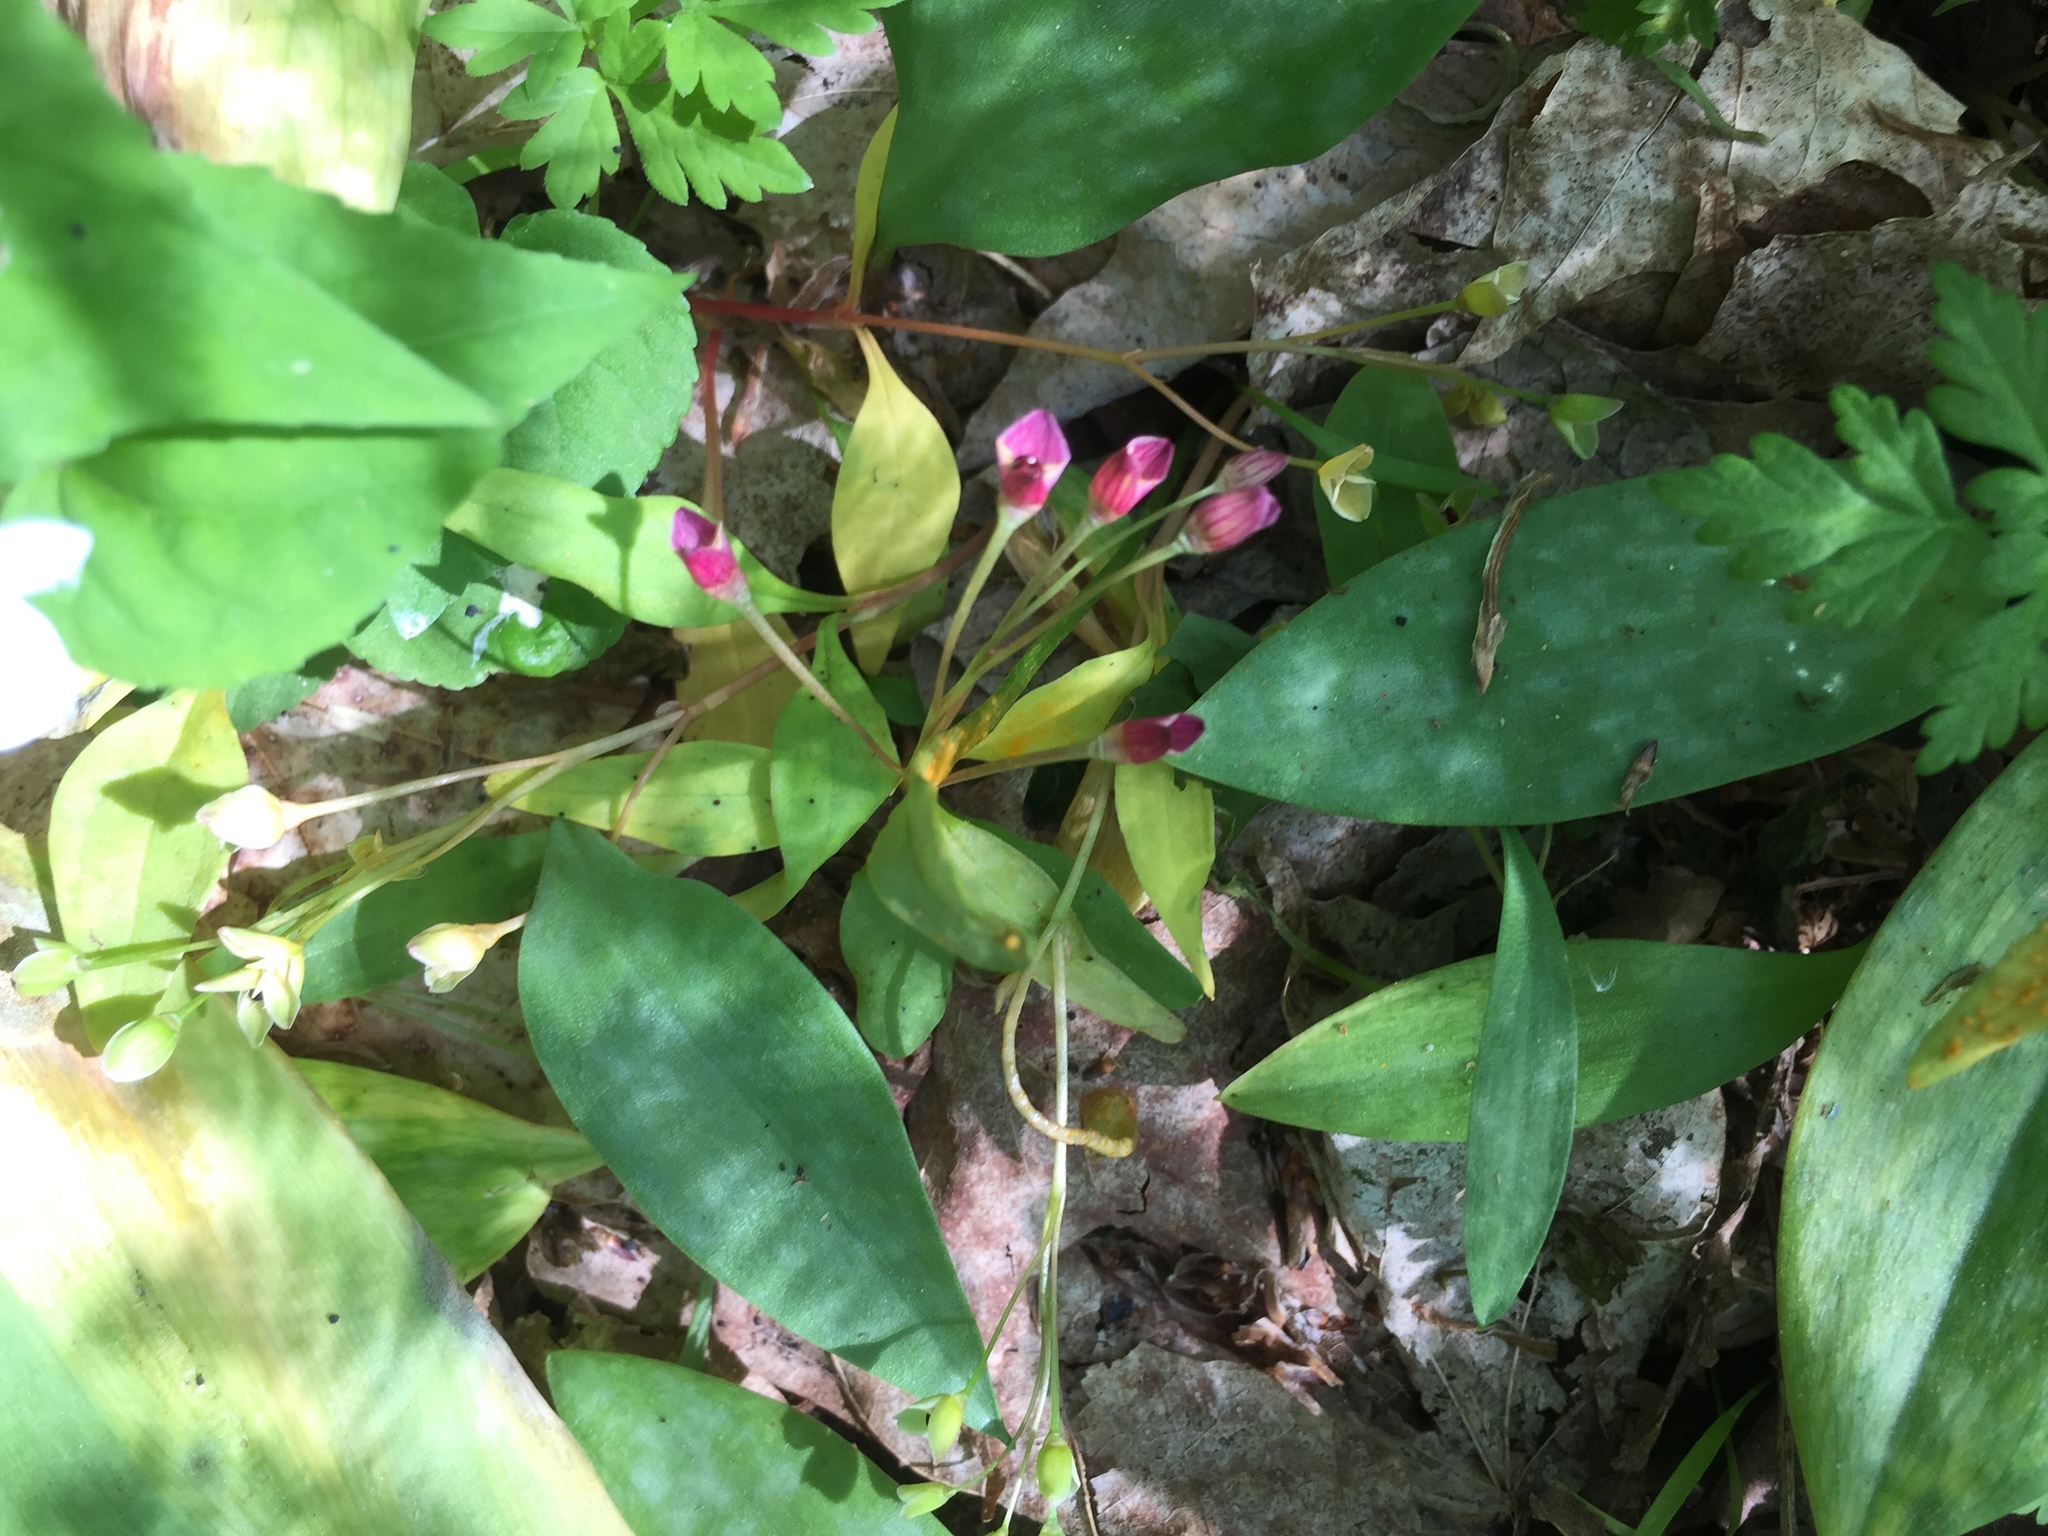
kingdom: Plantae
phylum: Tracheophyta
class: Magnoliopsida
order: Caryophyllales
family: Montiaceae
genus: Claytonia
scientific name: Claytonia caroliniana
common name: Carolina spring beauty
